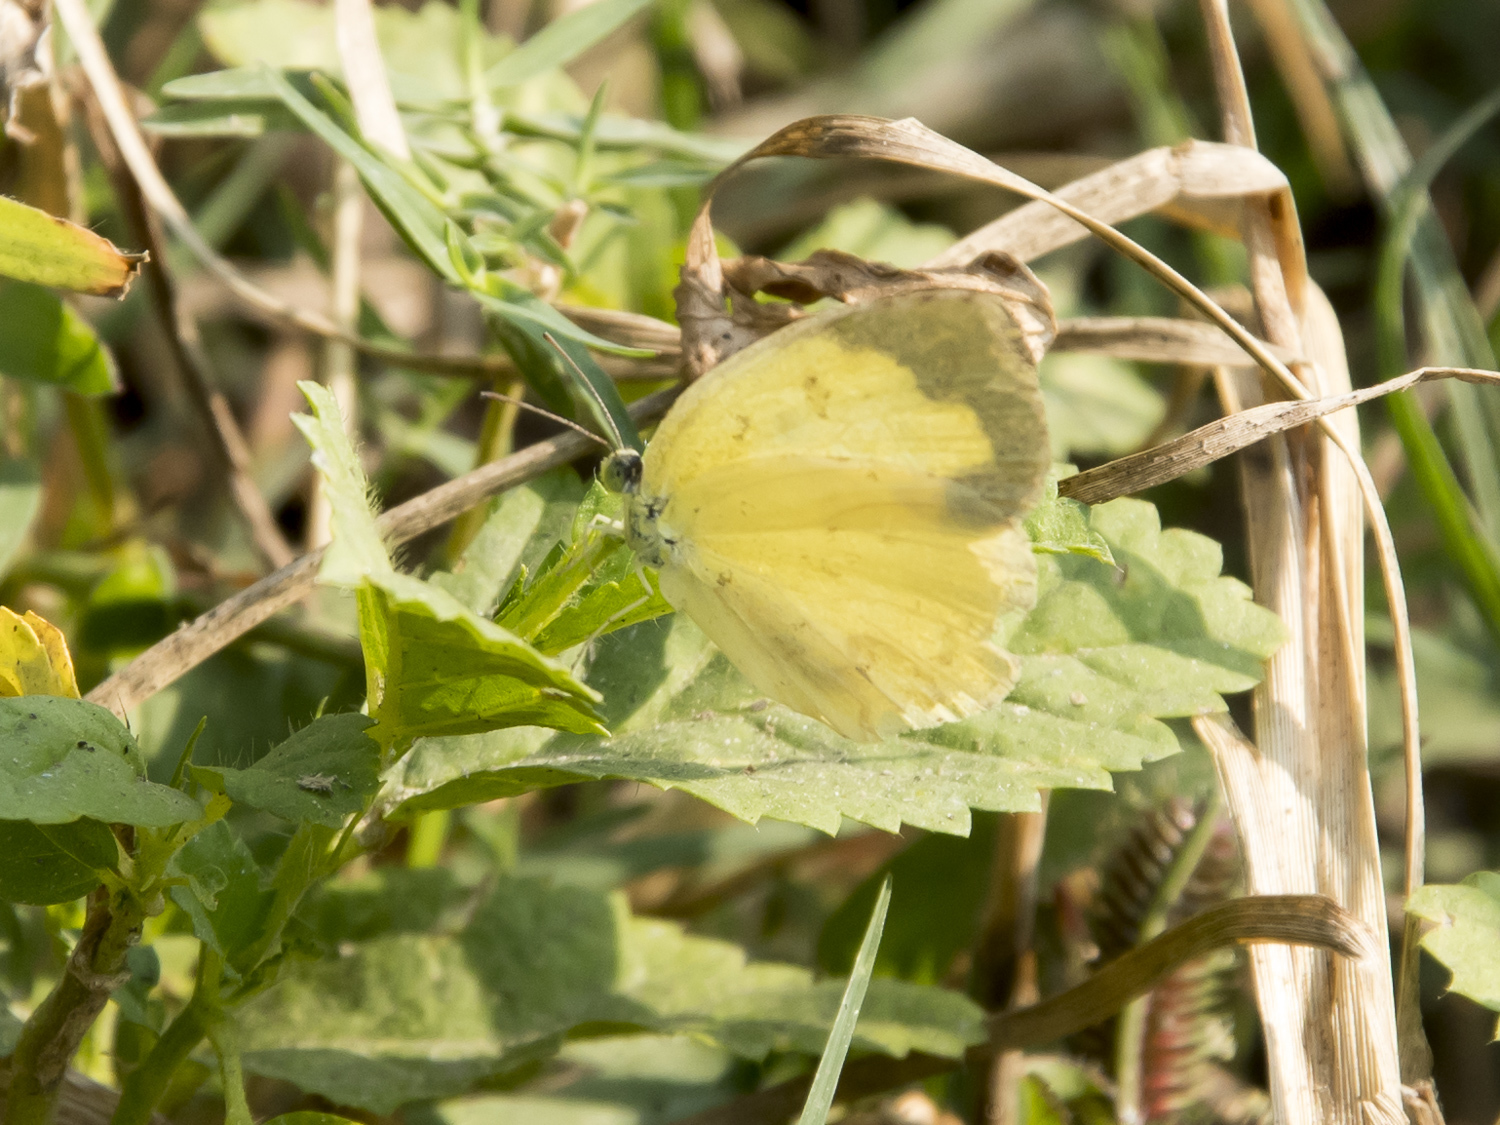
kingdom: Animalia
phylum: Arthropoda
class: Insecta
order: Lepidoptera
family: Pieridae
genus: Eurema
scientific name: Eurema hecabe
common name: Pale grass yellow
